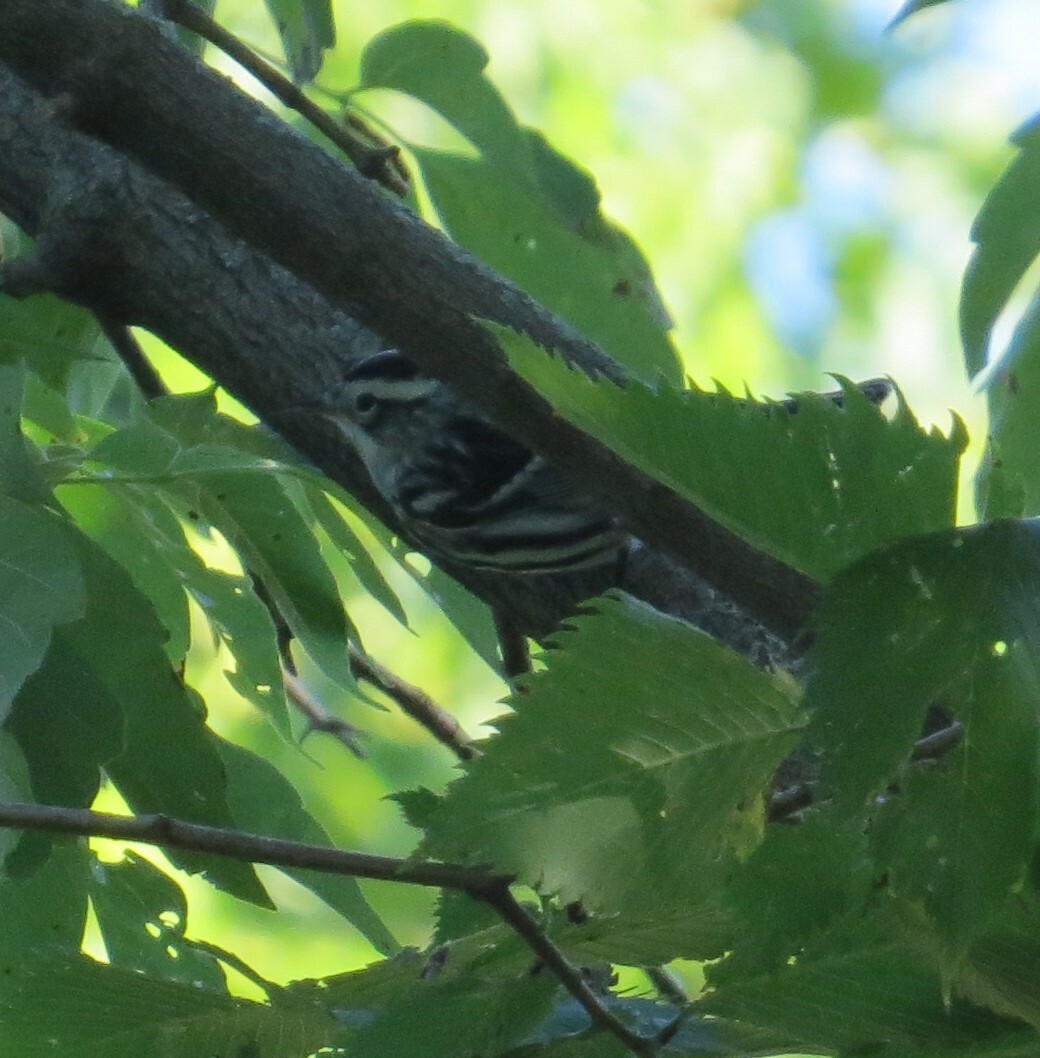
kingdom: Animalia
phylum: Chordata
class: Aves
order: Passeriformes
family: Parulidae
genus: Mniotilta
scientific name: Mniotilta varia
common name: Black-and-white warbler
